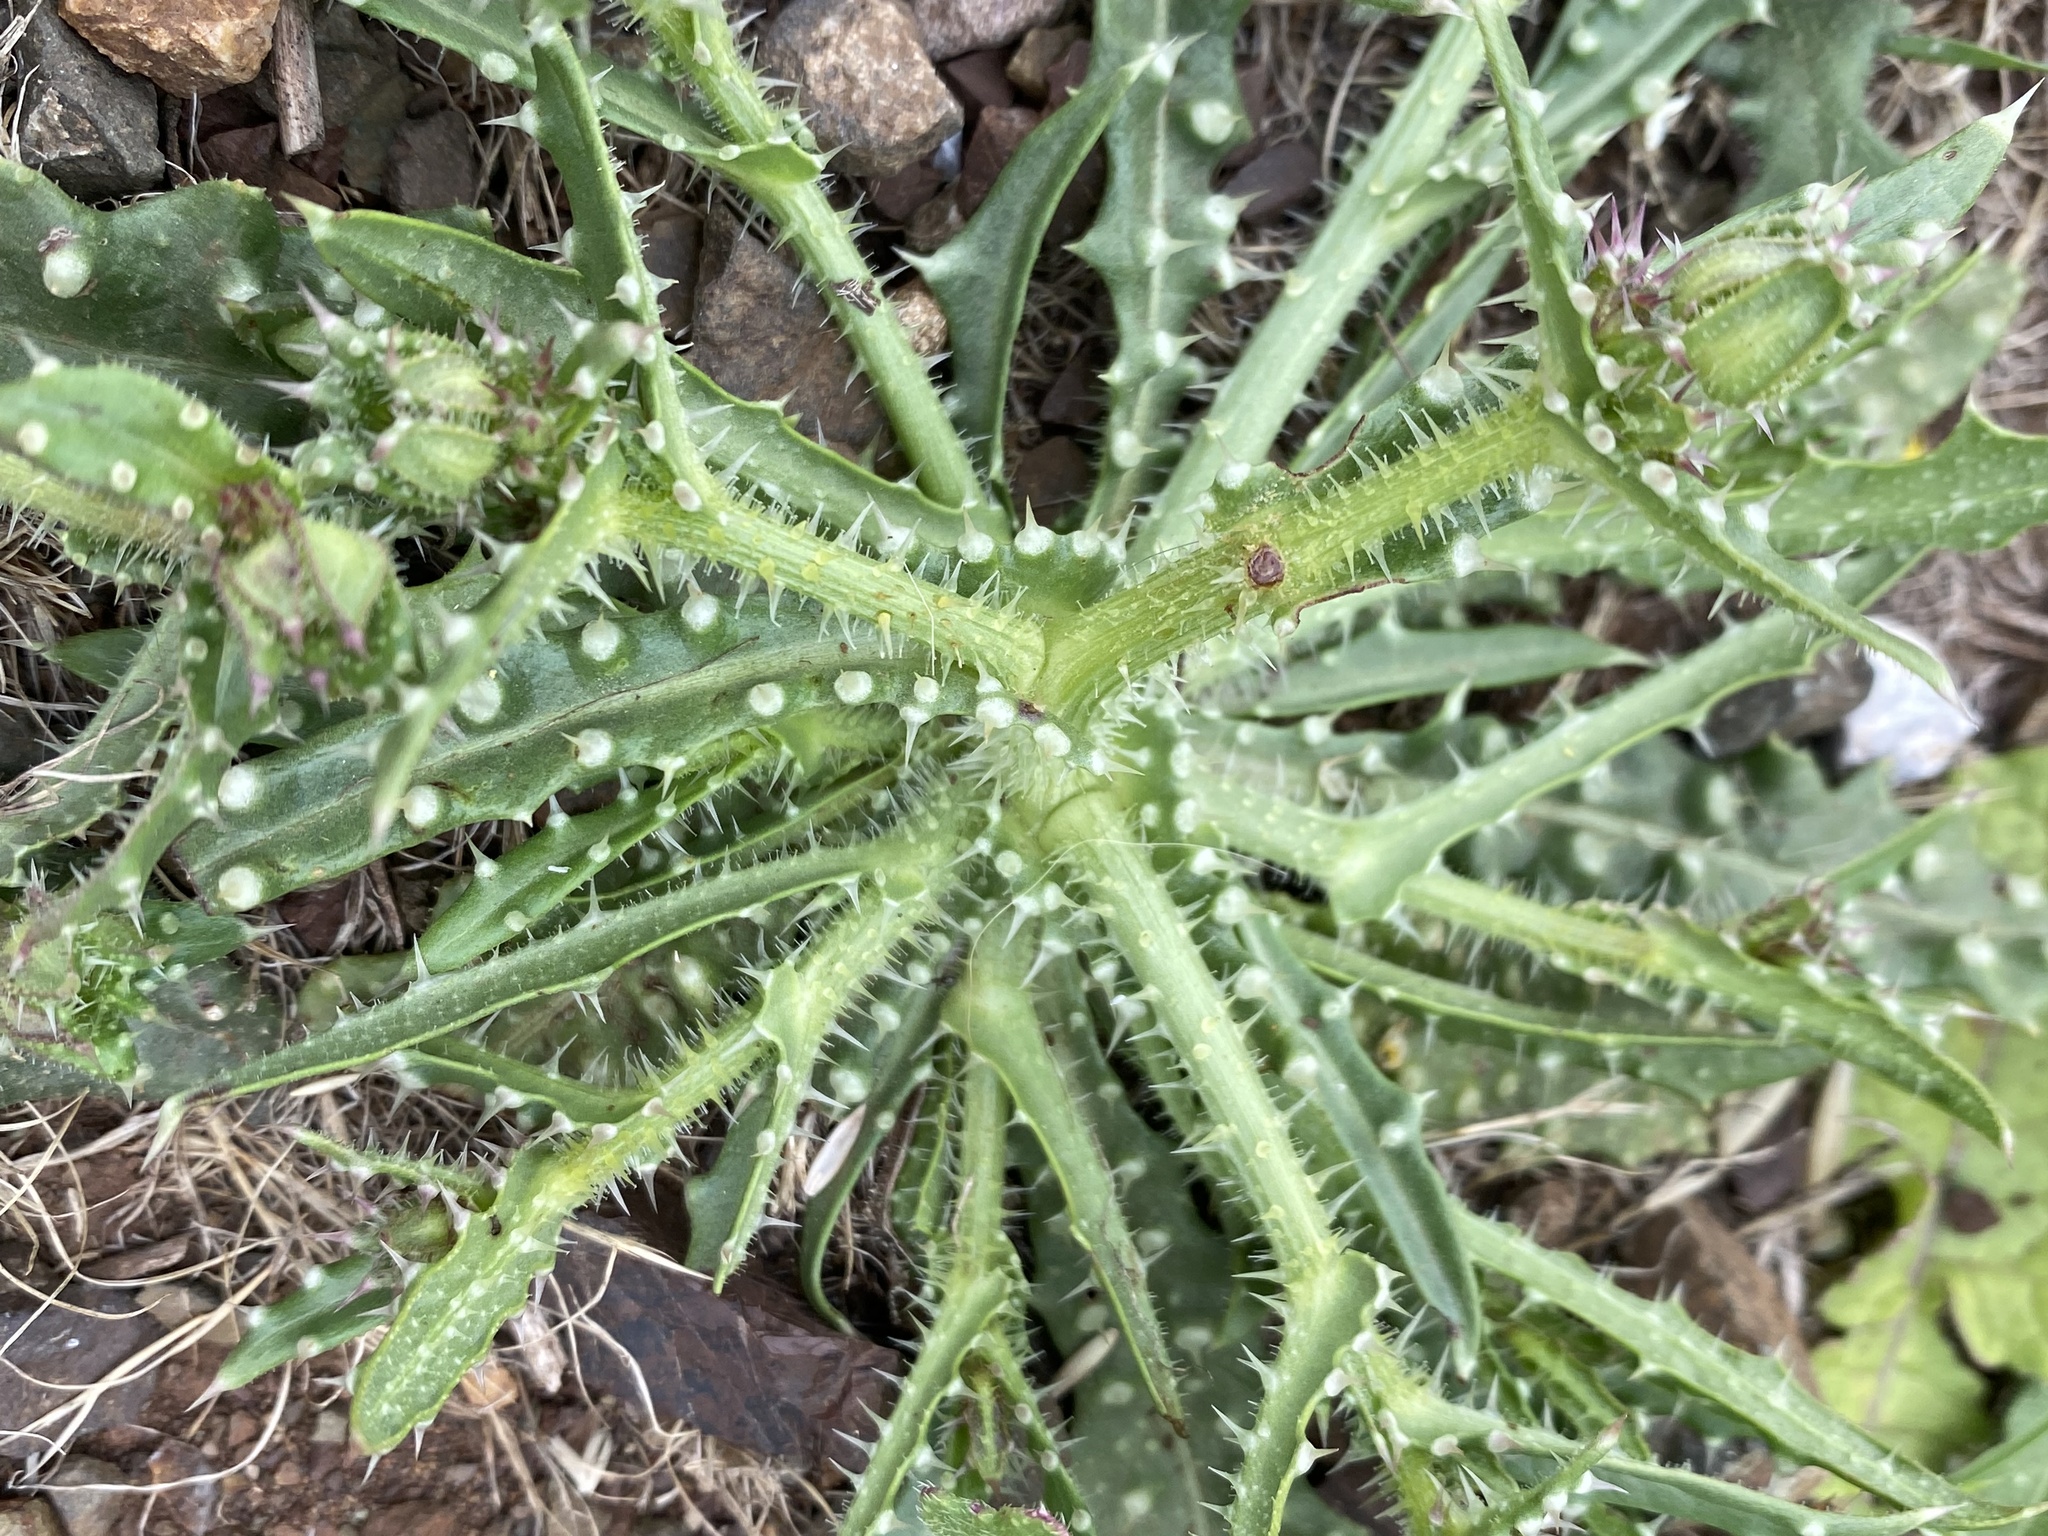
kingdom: Plantae
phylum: Tracheophyta
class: Magnoliopsida
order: Asterales
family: Asteraceae
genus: Helminthotheca
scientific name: Helminthotheca echioides
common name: Ox-tongue
